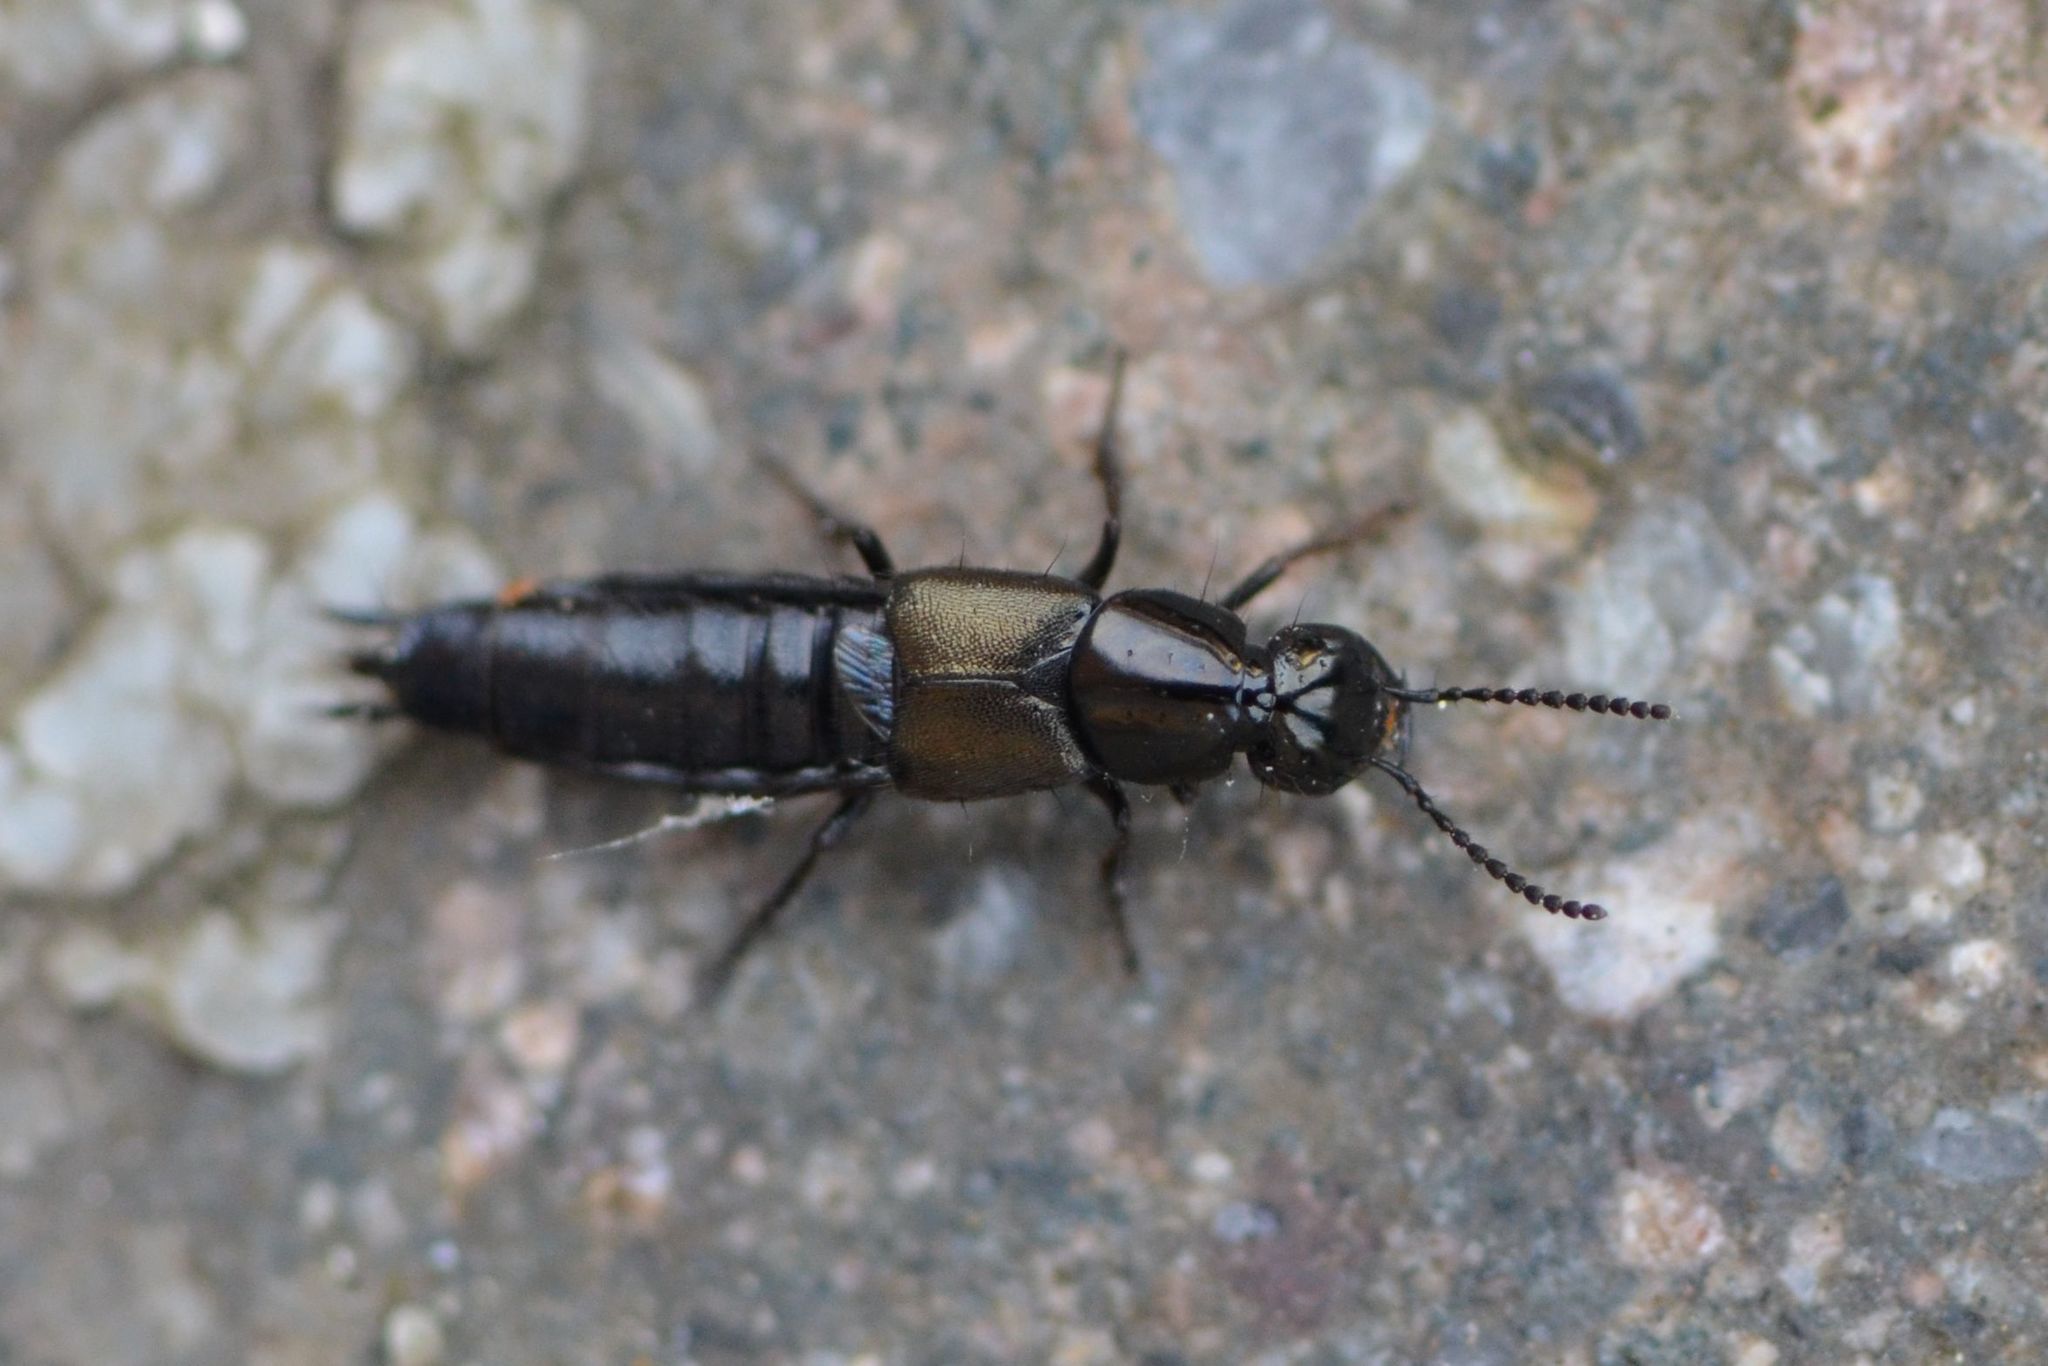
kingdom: Animalia
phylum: Arthropoda
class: Insecta
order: Coleoptera
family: Staphylinidae
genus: Philonthus
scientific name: Philonthus tenuicornis
